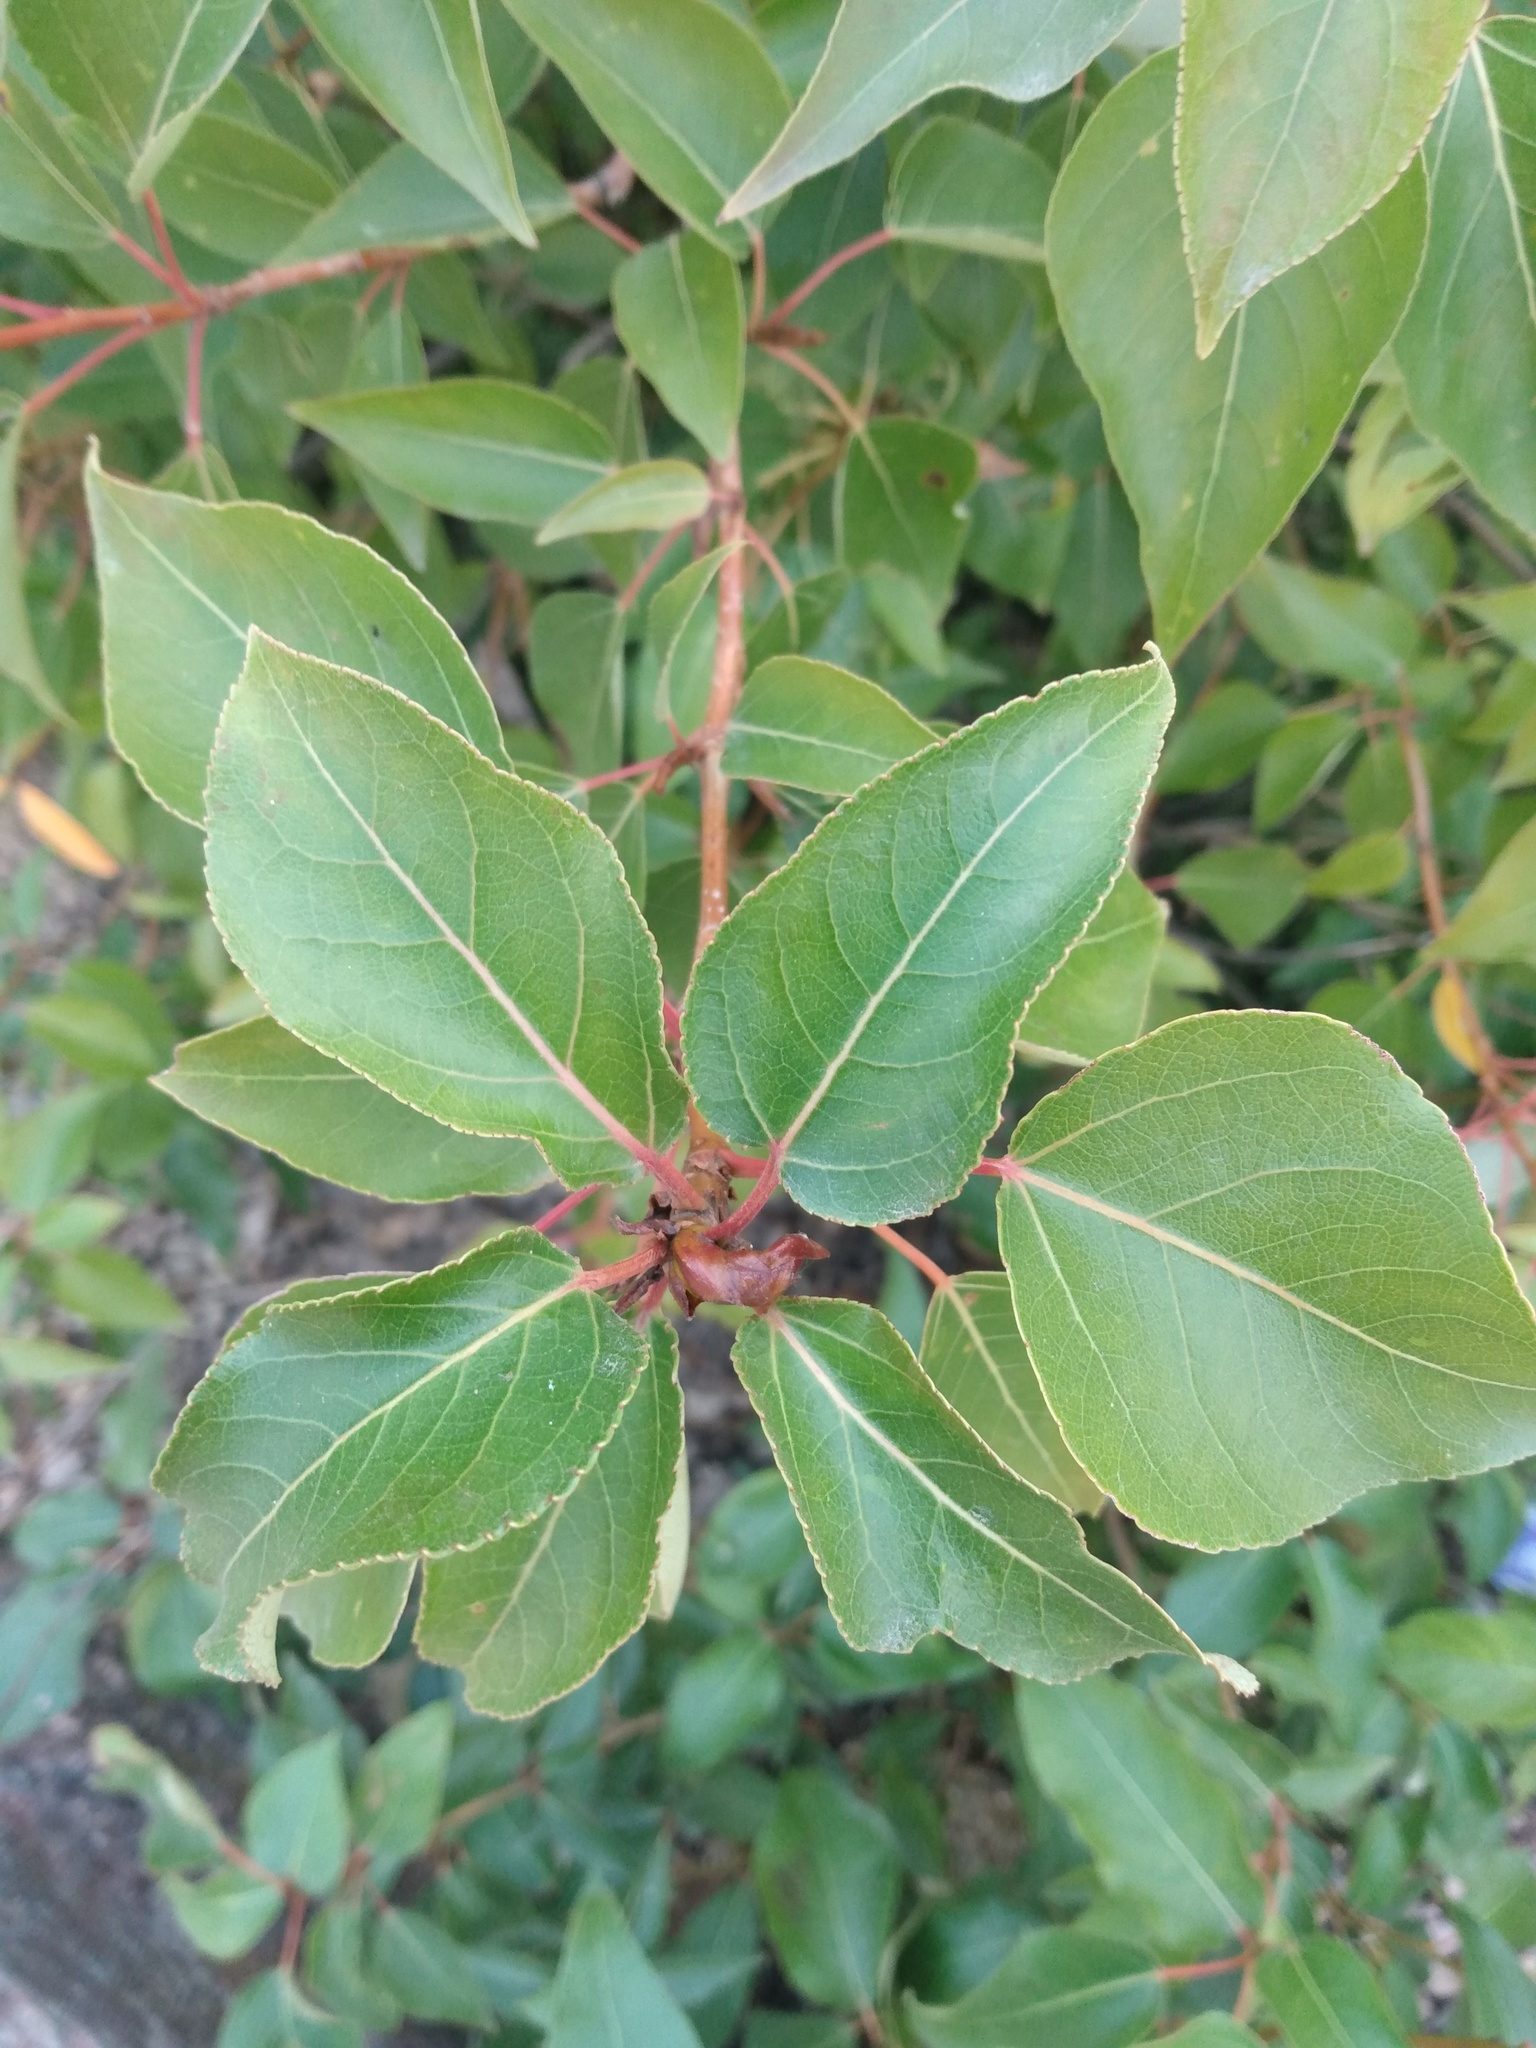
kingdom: Plantae
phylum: Tracheophyta
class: Magnoliopsida
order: Malpighiales
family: Salicaceae
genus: Populus
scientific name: Populus trichocarpa
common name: Black cottonwood
